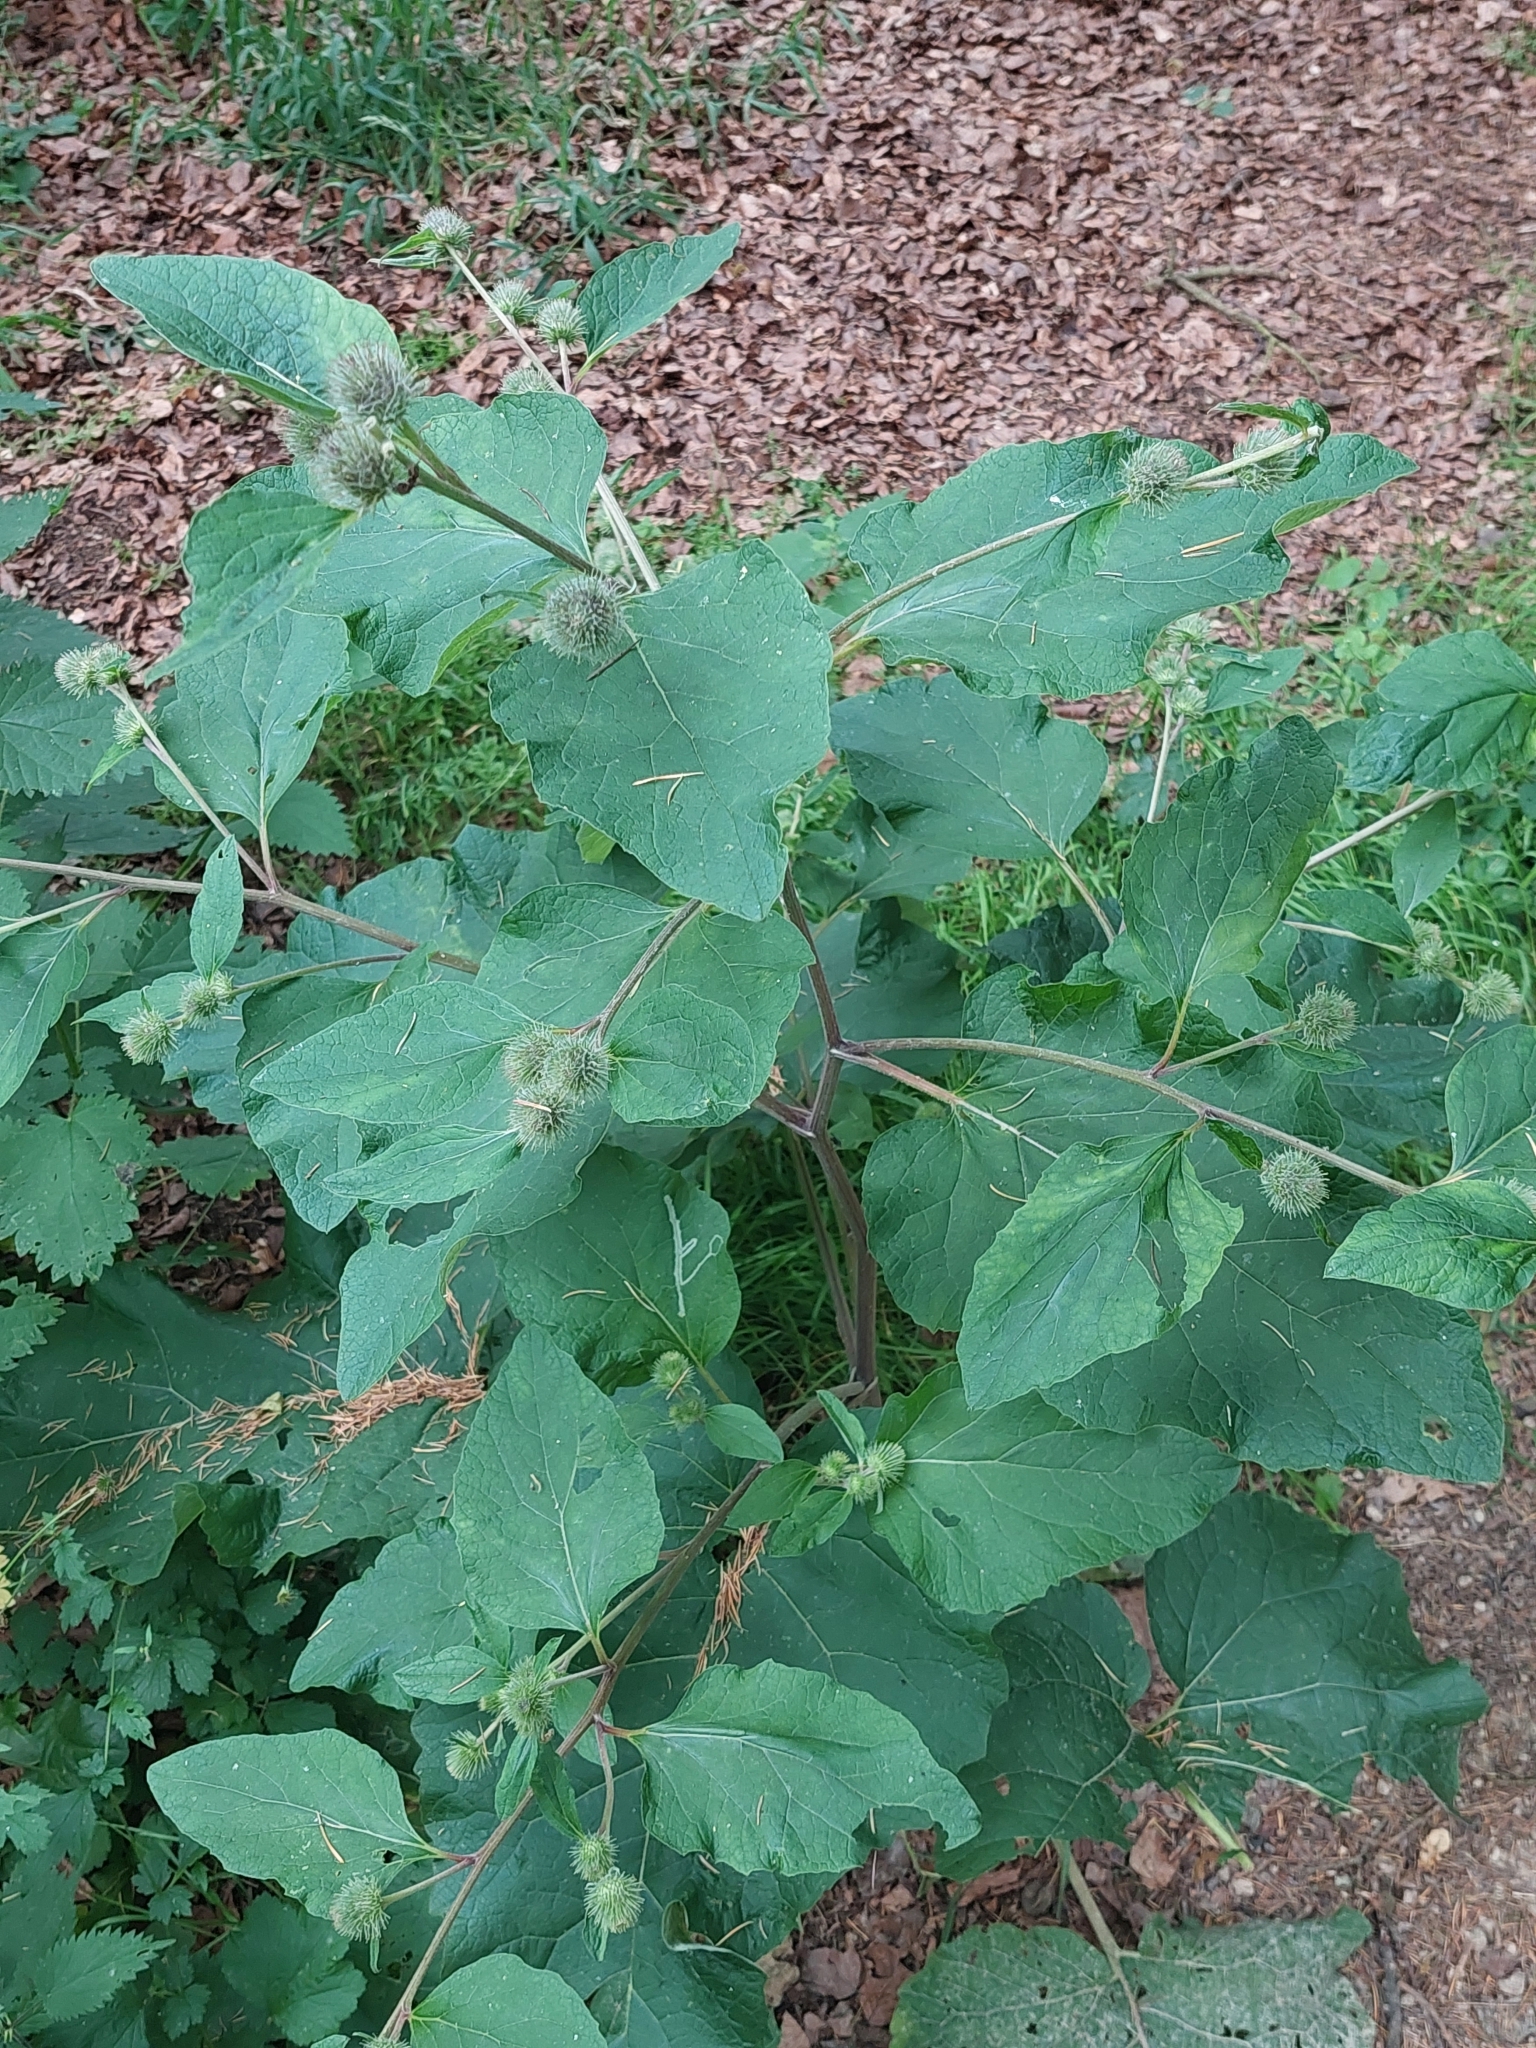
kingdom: Plantae
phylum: Tracheophyta
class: Magnoliopsida
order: Asterales
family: Asteraceae
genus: Arctium
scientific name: Arctium minus
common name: Lesser burdock
